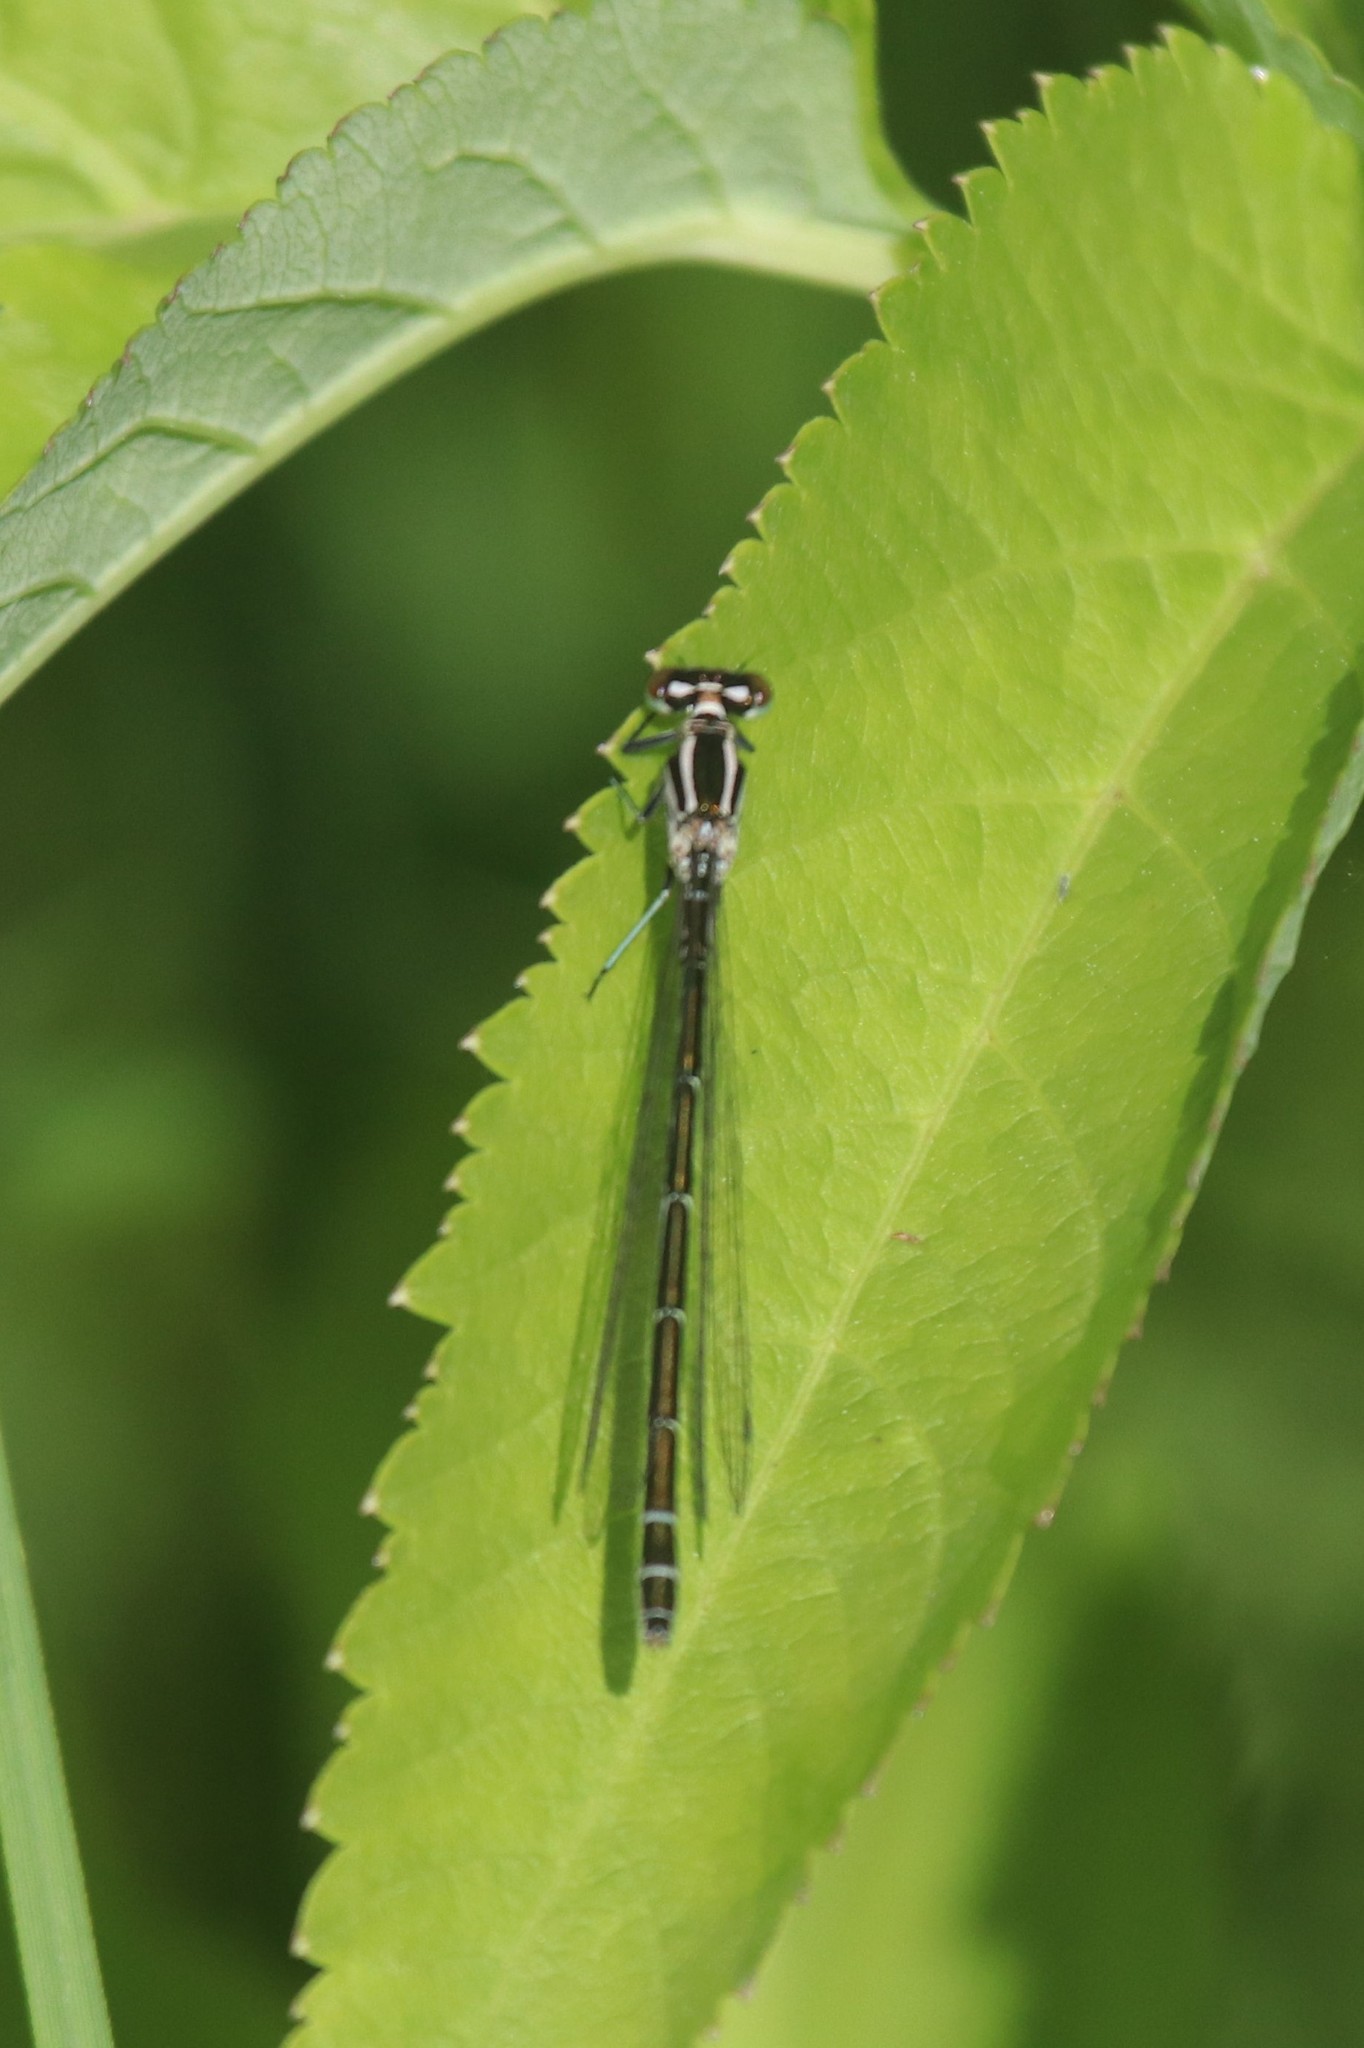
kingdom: Animalia
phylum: Arthropoda
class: Insecta
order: Odonata
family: Coenagrionidae
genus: Coenagrion
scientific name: Coenagrion hastulatum
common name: Spearhead bluet
